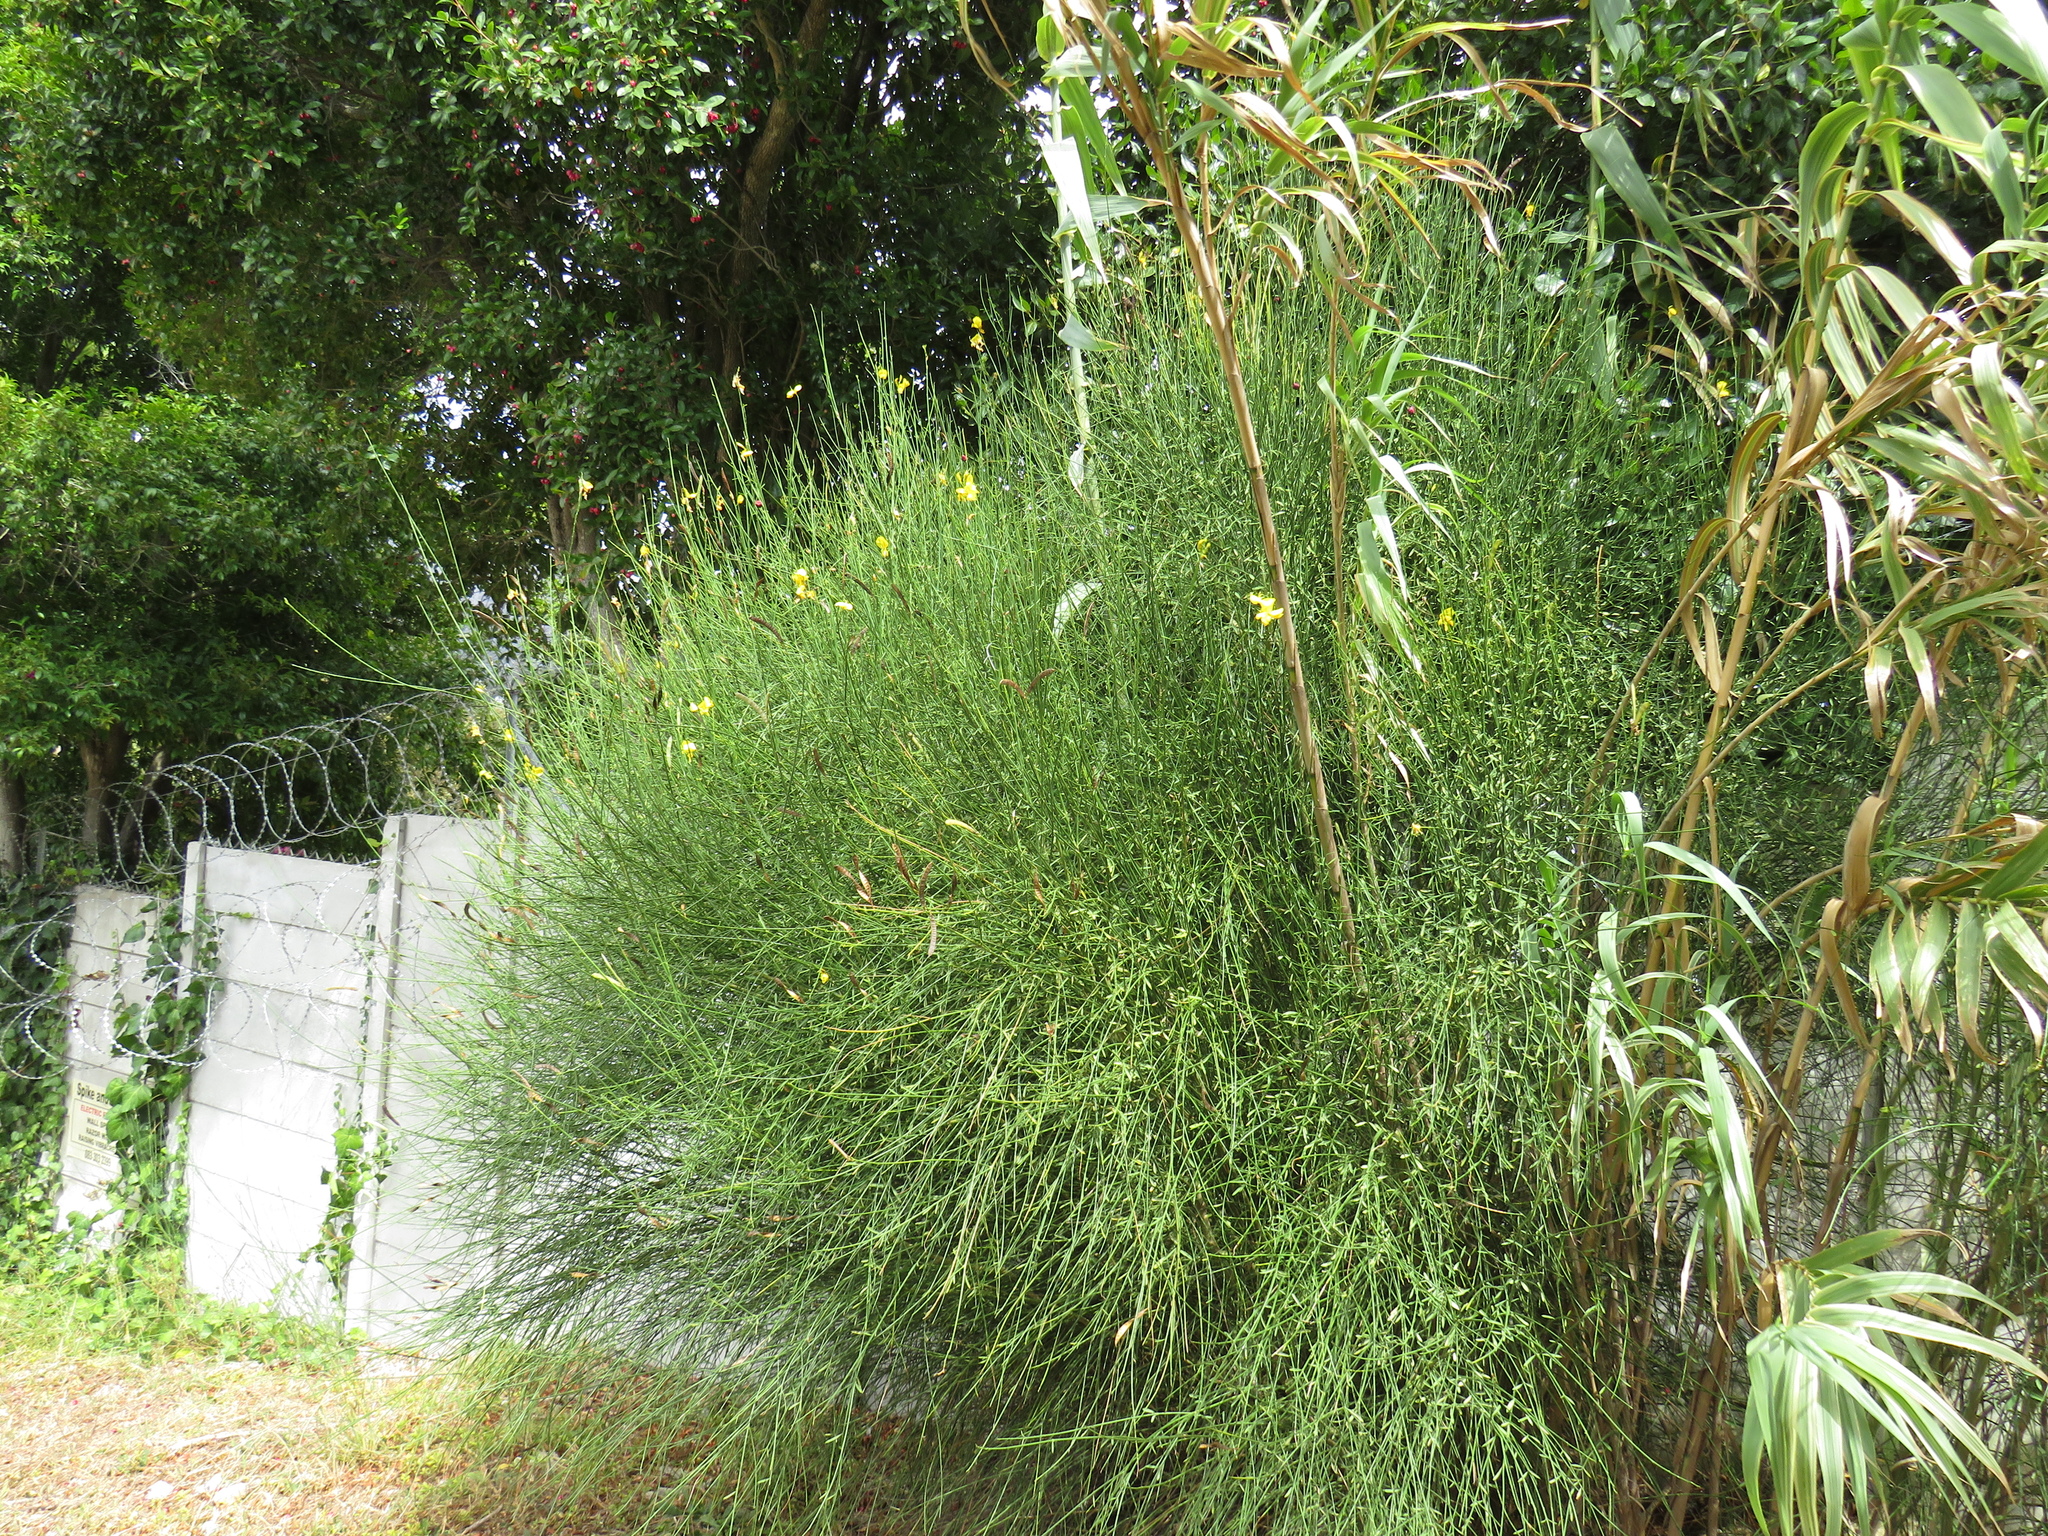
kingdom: Plantae
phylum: Tracheophyta
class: Magnoliopsida
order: Fabales
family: Fabaceae
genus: Spartium
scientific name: Spartium junceum
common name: Spanish broom
